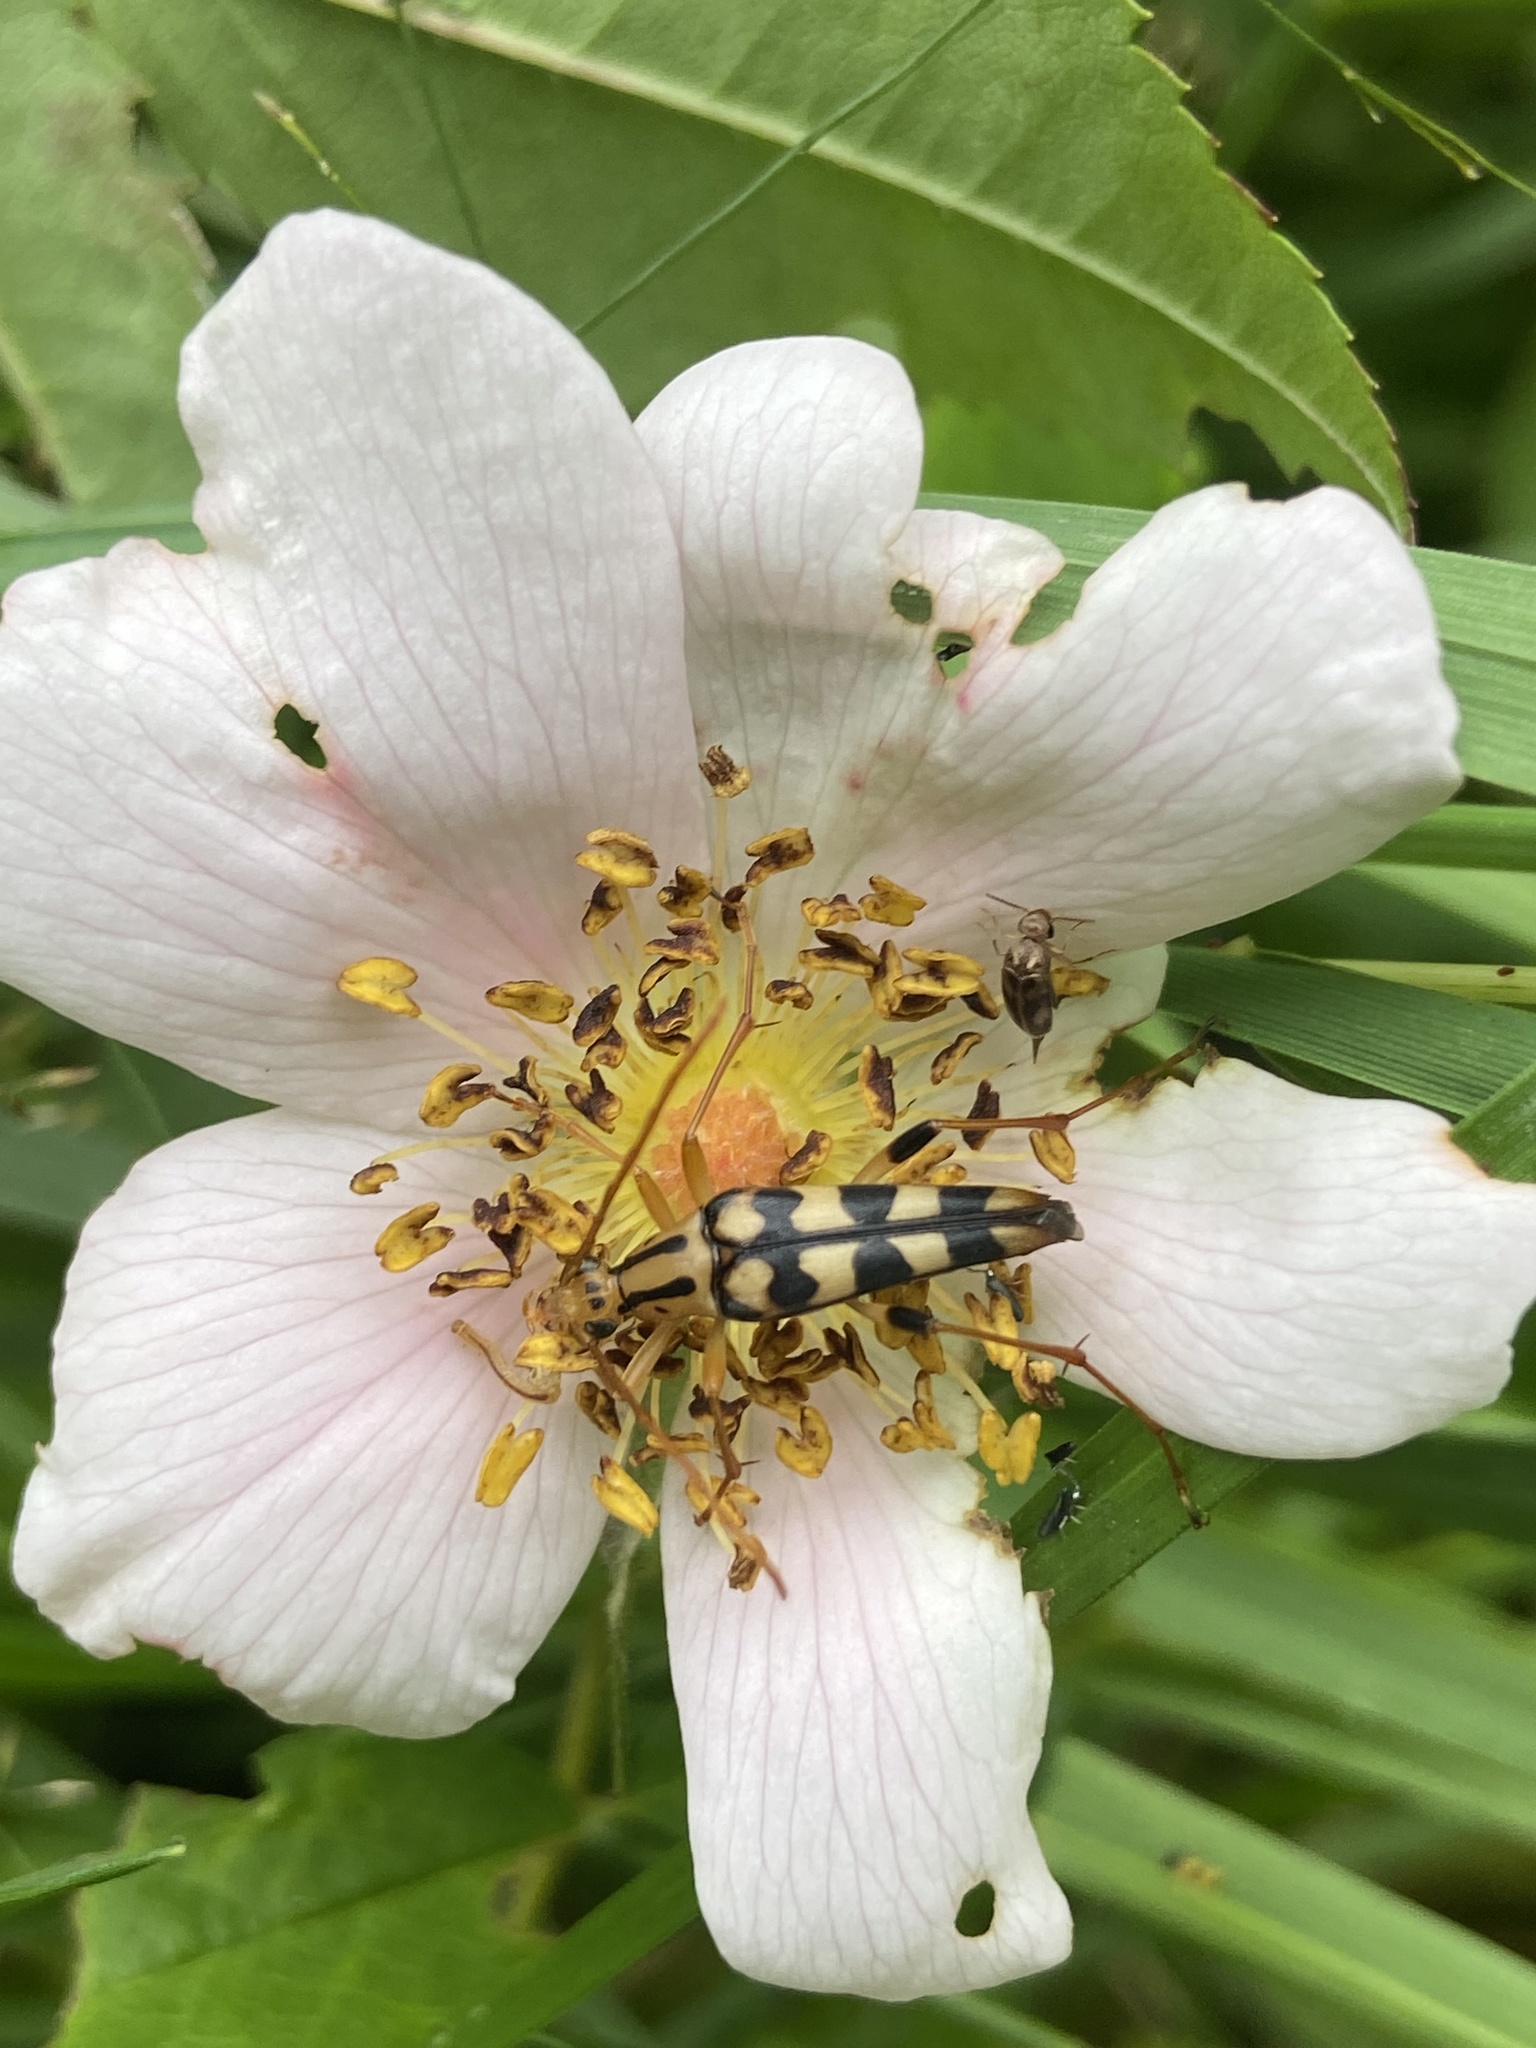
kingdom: Animalia
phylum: Arthropoda
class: Insecta
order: Coleoptera
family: Cerambycidae
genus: Strangalia
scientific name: Strangalia luteicornis
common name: Yellow-horned flower longhorn beetle
